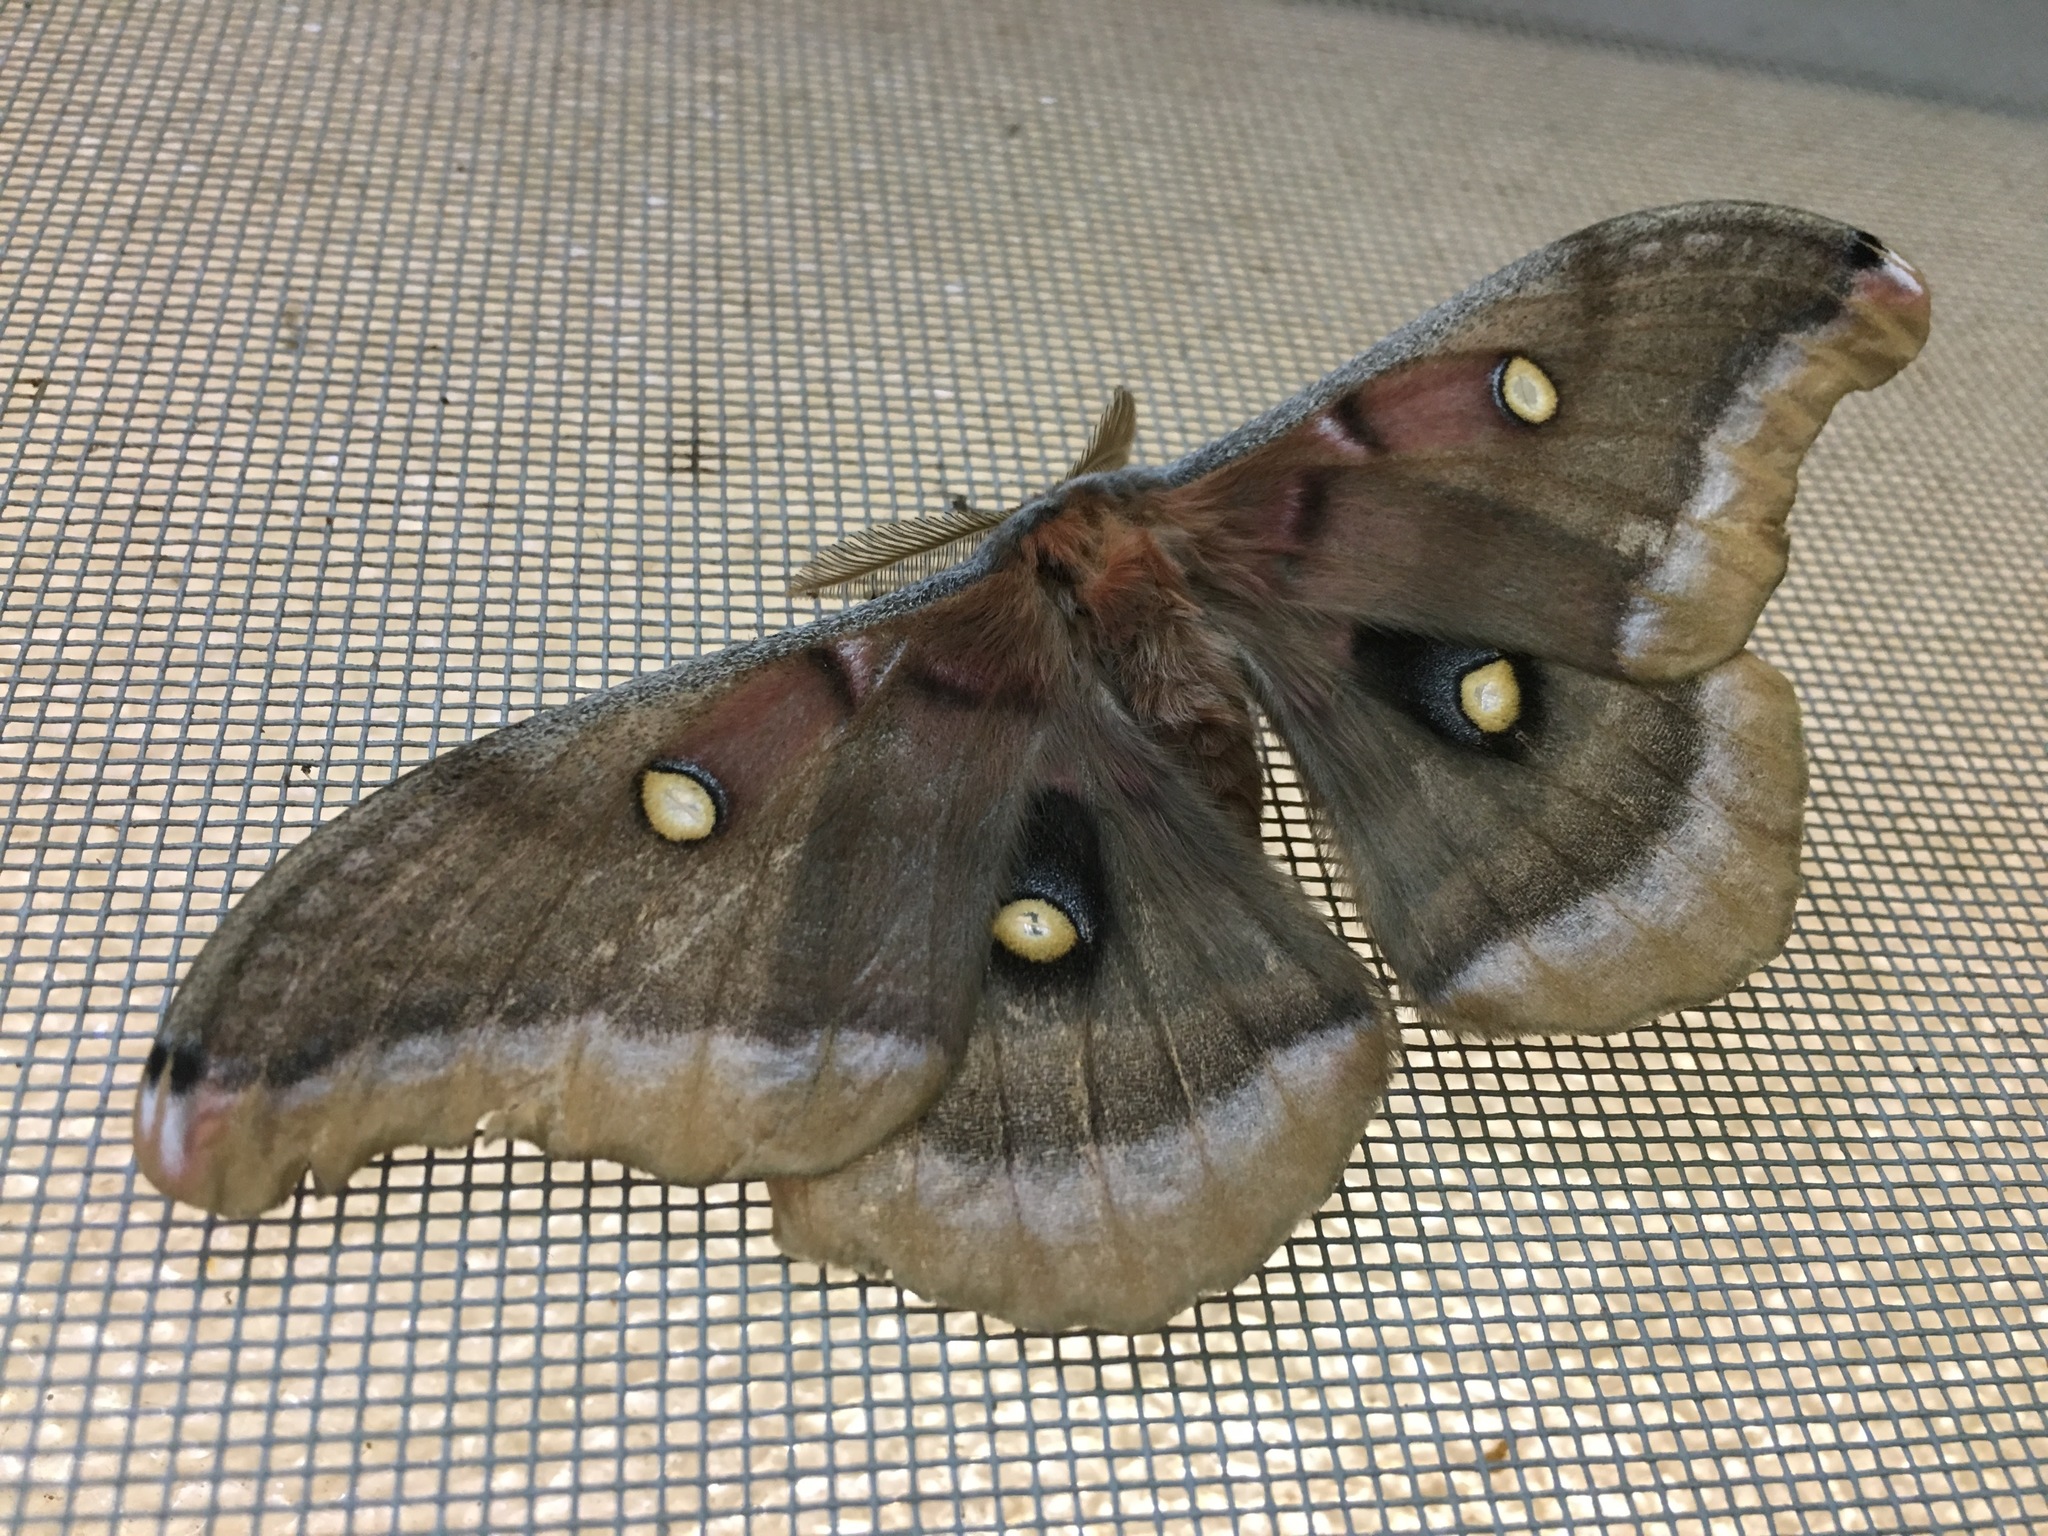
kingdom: Animalia
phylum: Arthropoda
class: Insecta
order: Lepidoptera
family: Saturniidae
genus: Antheraea
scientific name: Antheraea polyphemus
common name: Polyphemus moth
